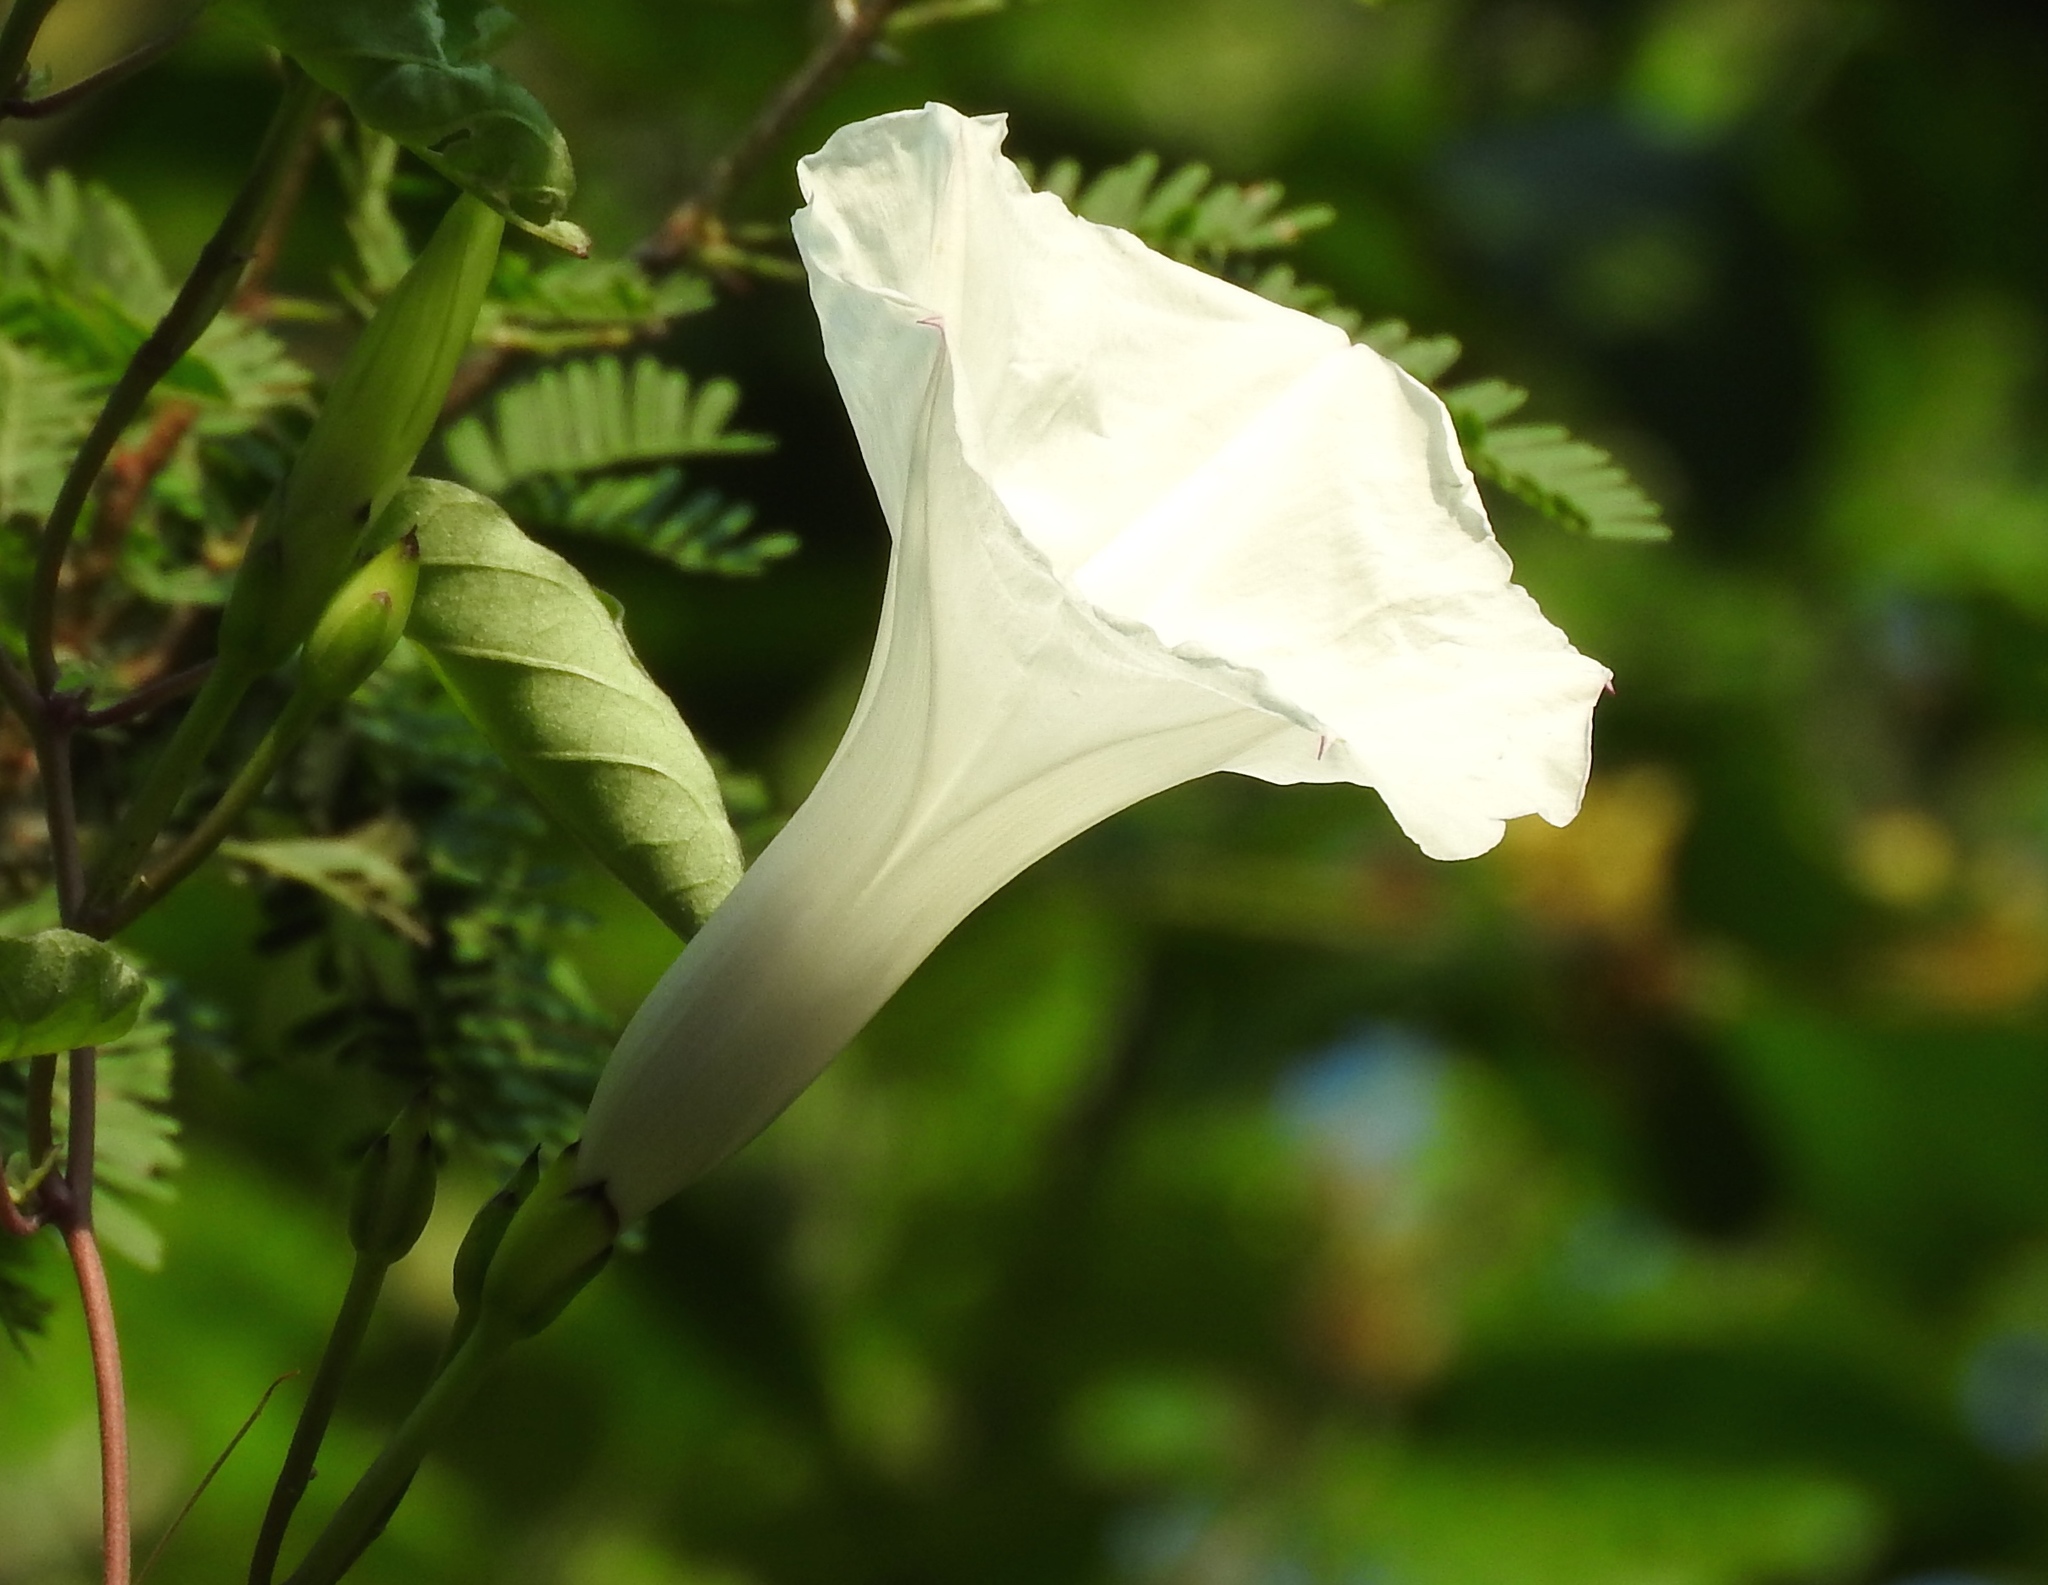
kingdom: Plantae
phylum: Tracheophyta
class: Magnoliopsida
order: Solanales
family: Convolvulaceae
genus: Ipomoea
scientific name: Ipomoea scopulorum
